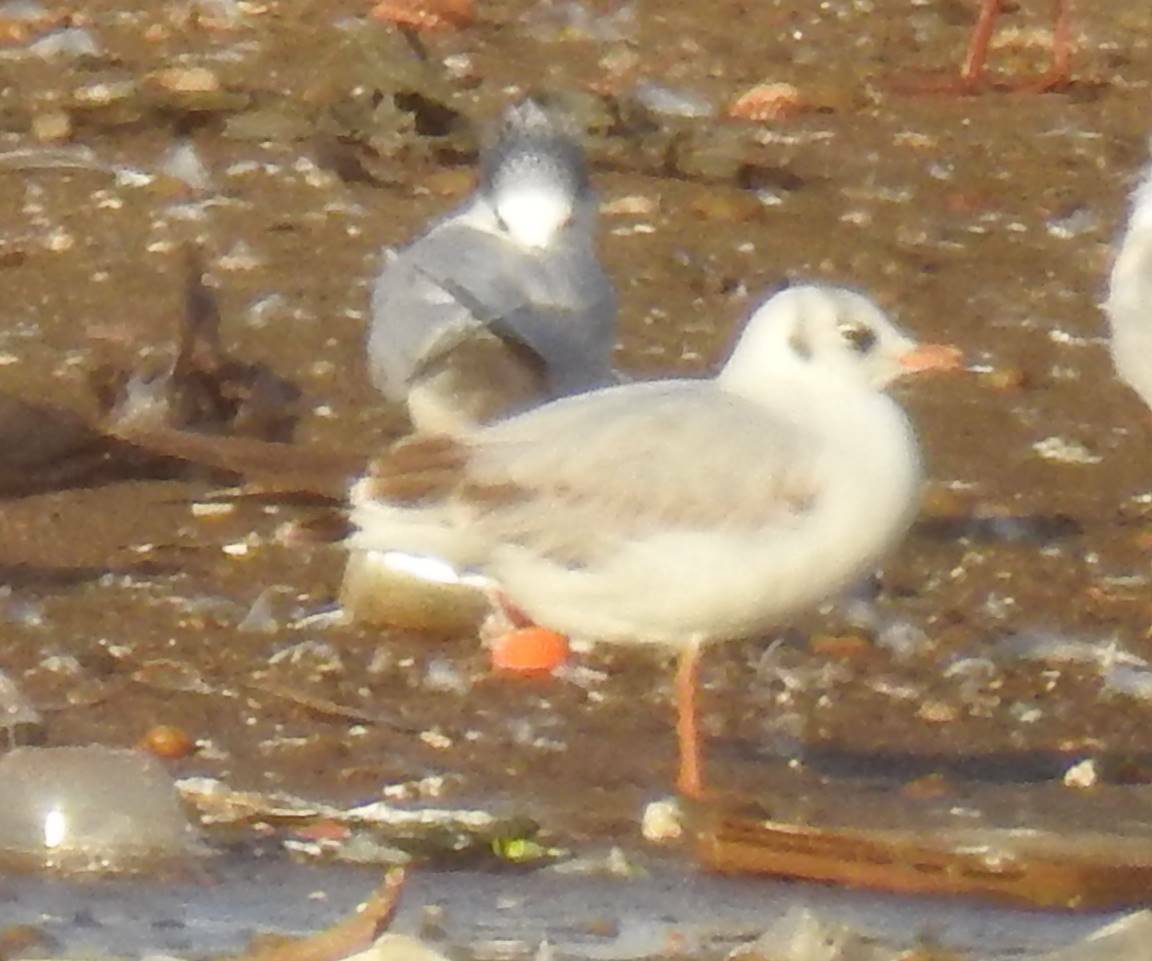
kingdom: Animalia
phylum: Chordata
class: Aves
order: Charadriiformes
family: Laridae
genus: Chroicocephalus
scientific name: Chroicocephalus ridibundus
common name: Black-headed gull
